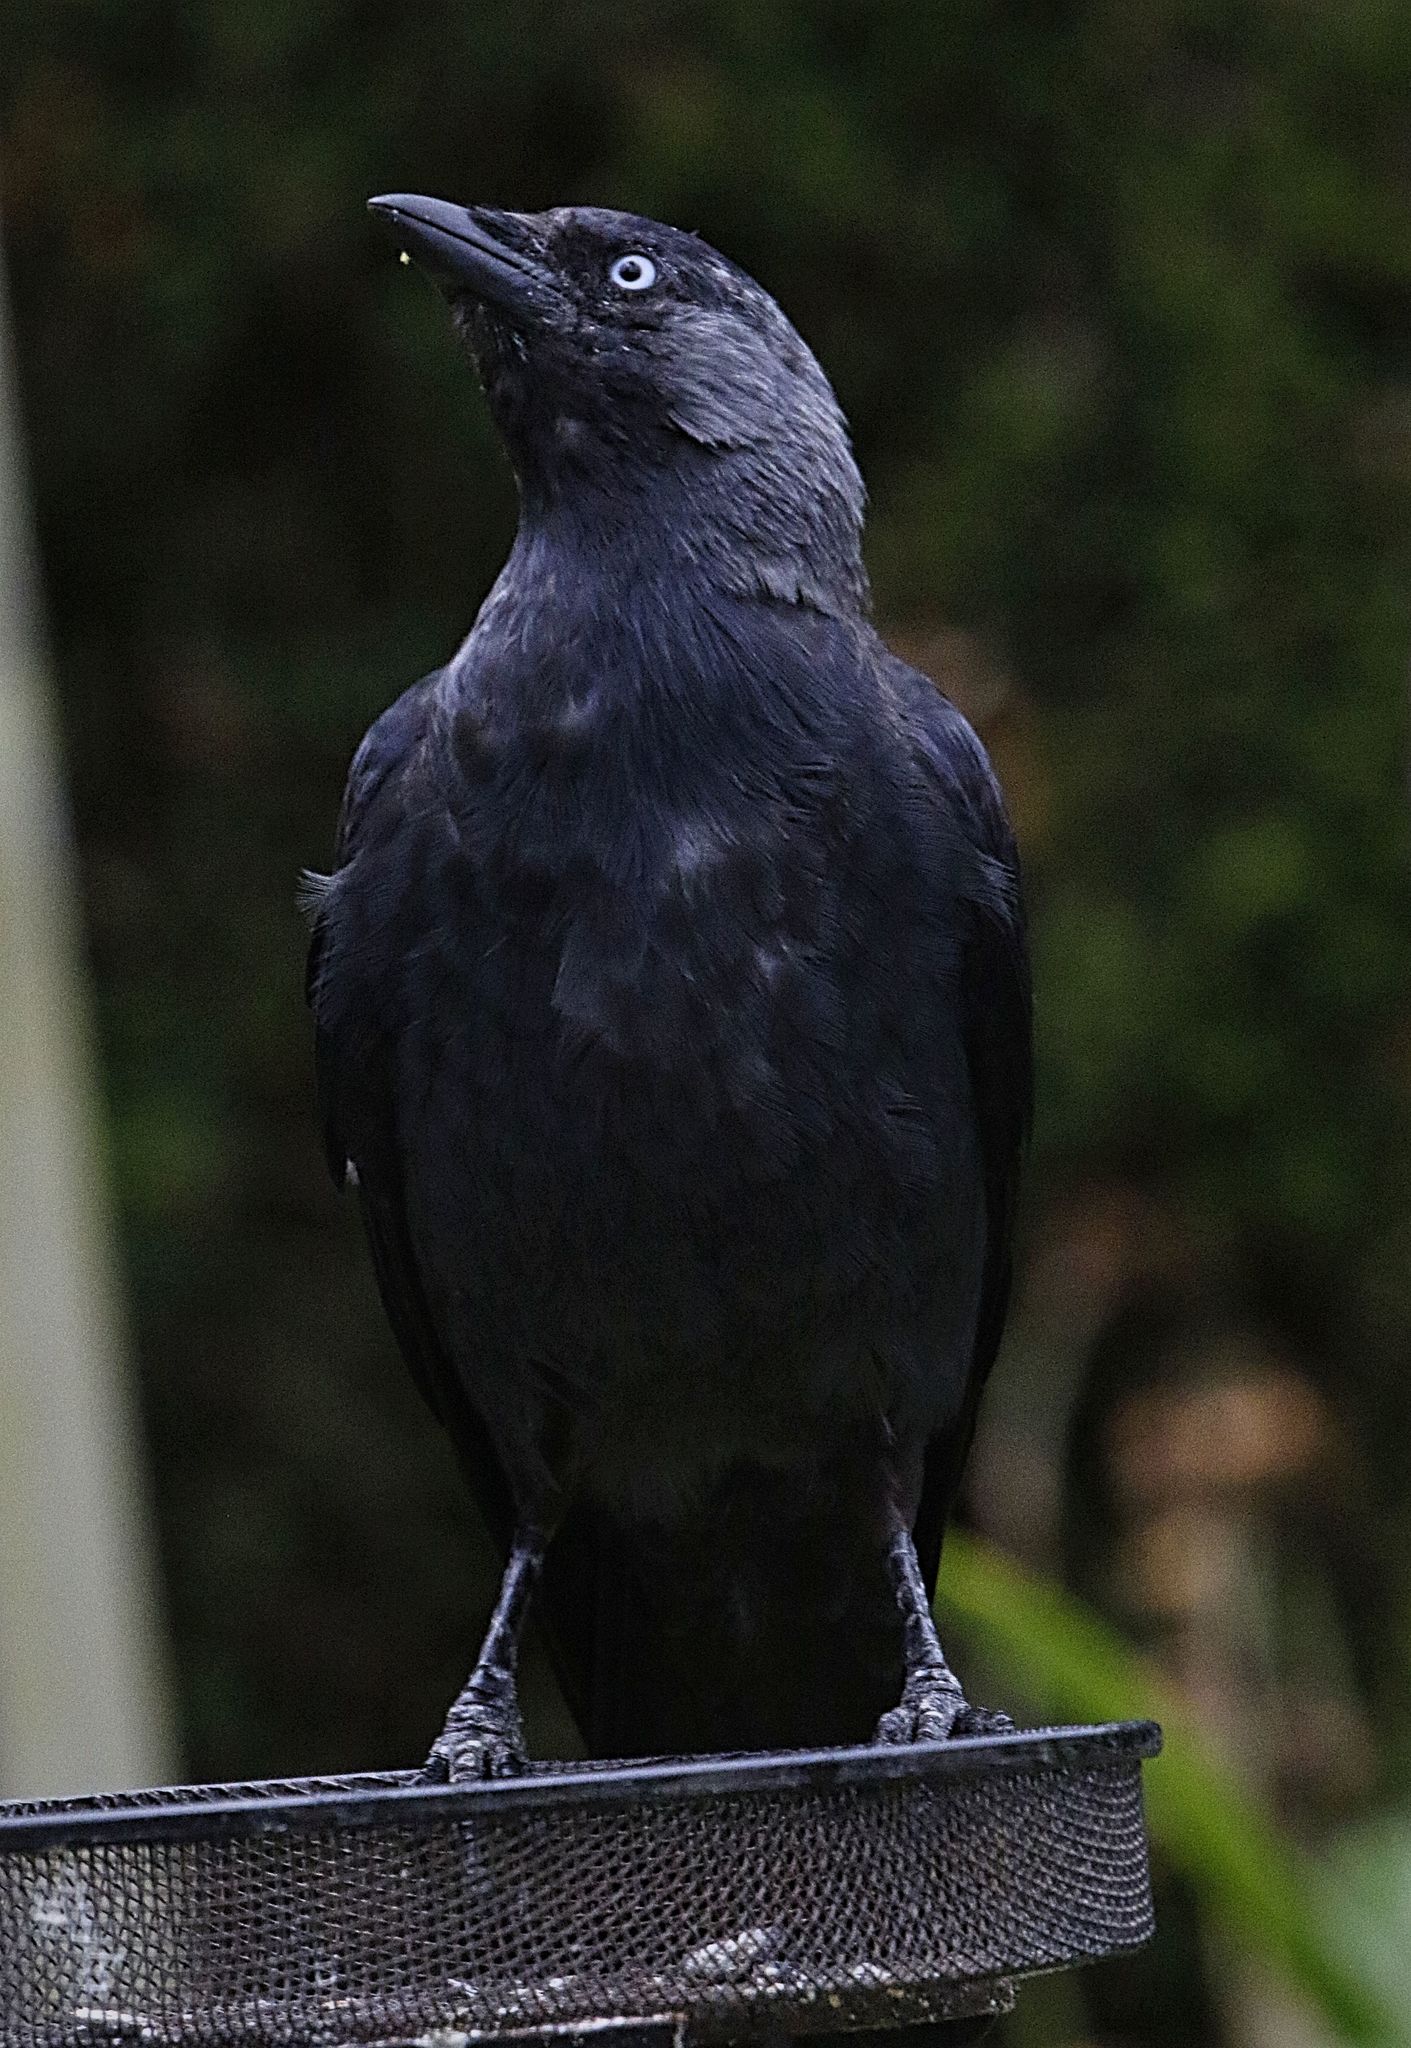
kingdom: Animalia
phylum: Chordata
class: Aves
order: Passeriformes
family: Corvidae
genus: Coloeus
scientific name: Coloeus monedula
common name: Western jackdaw
